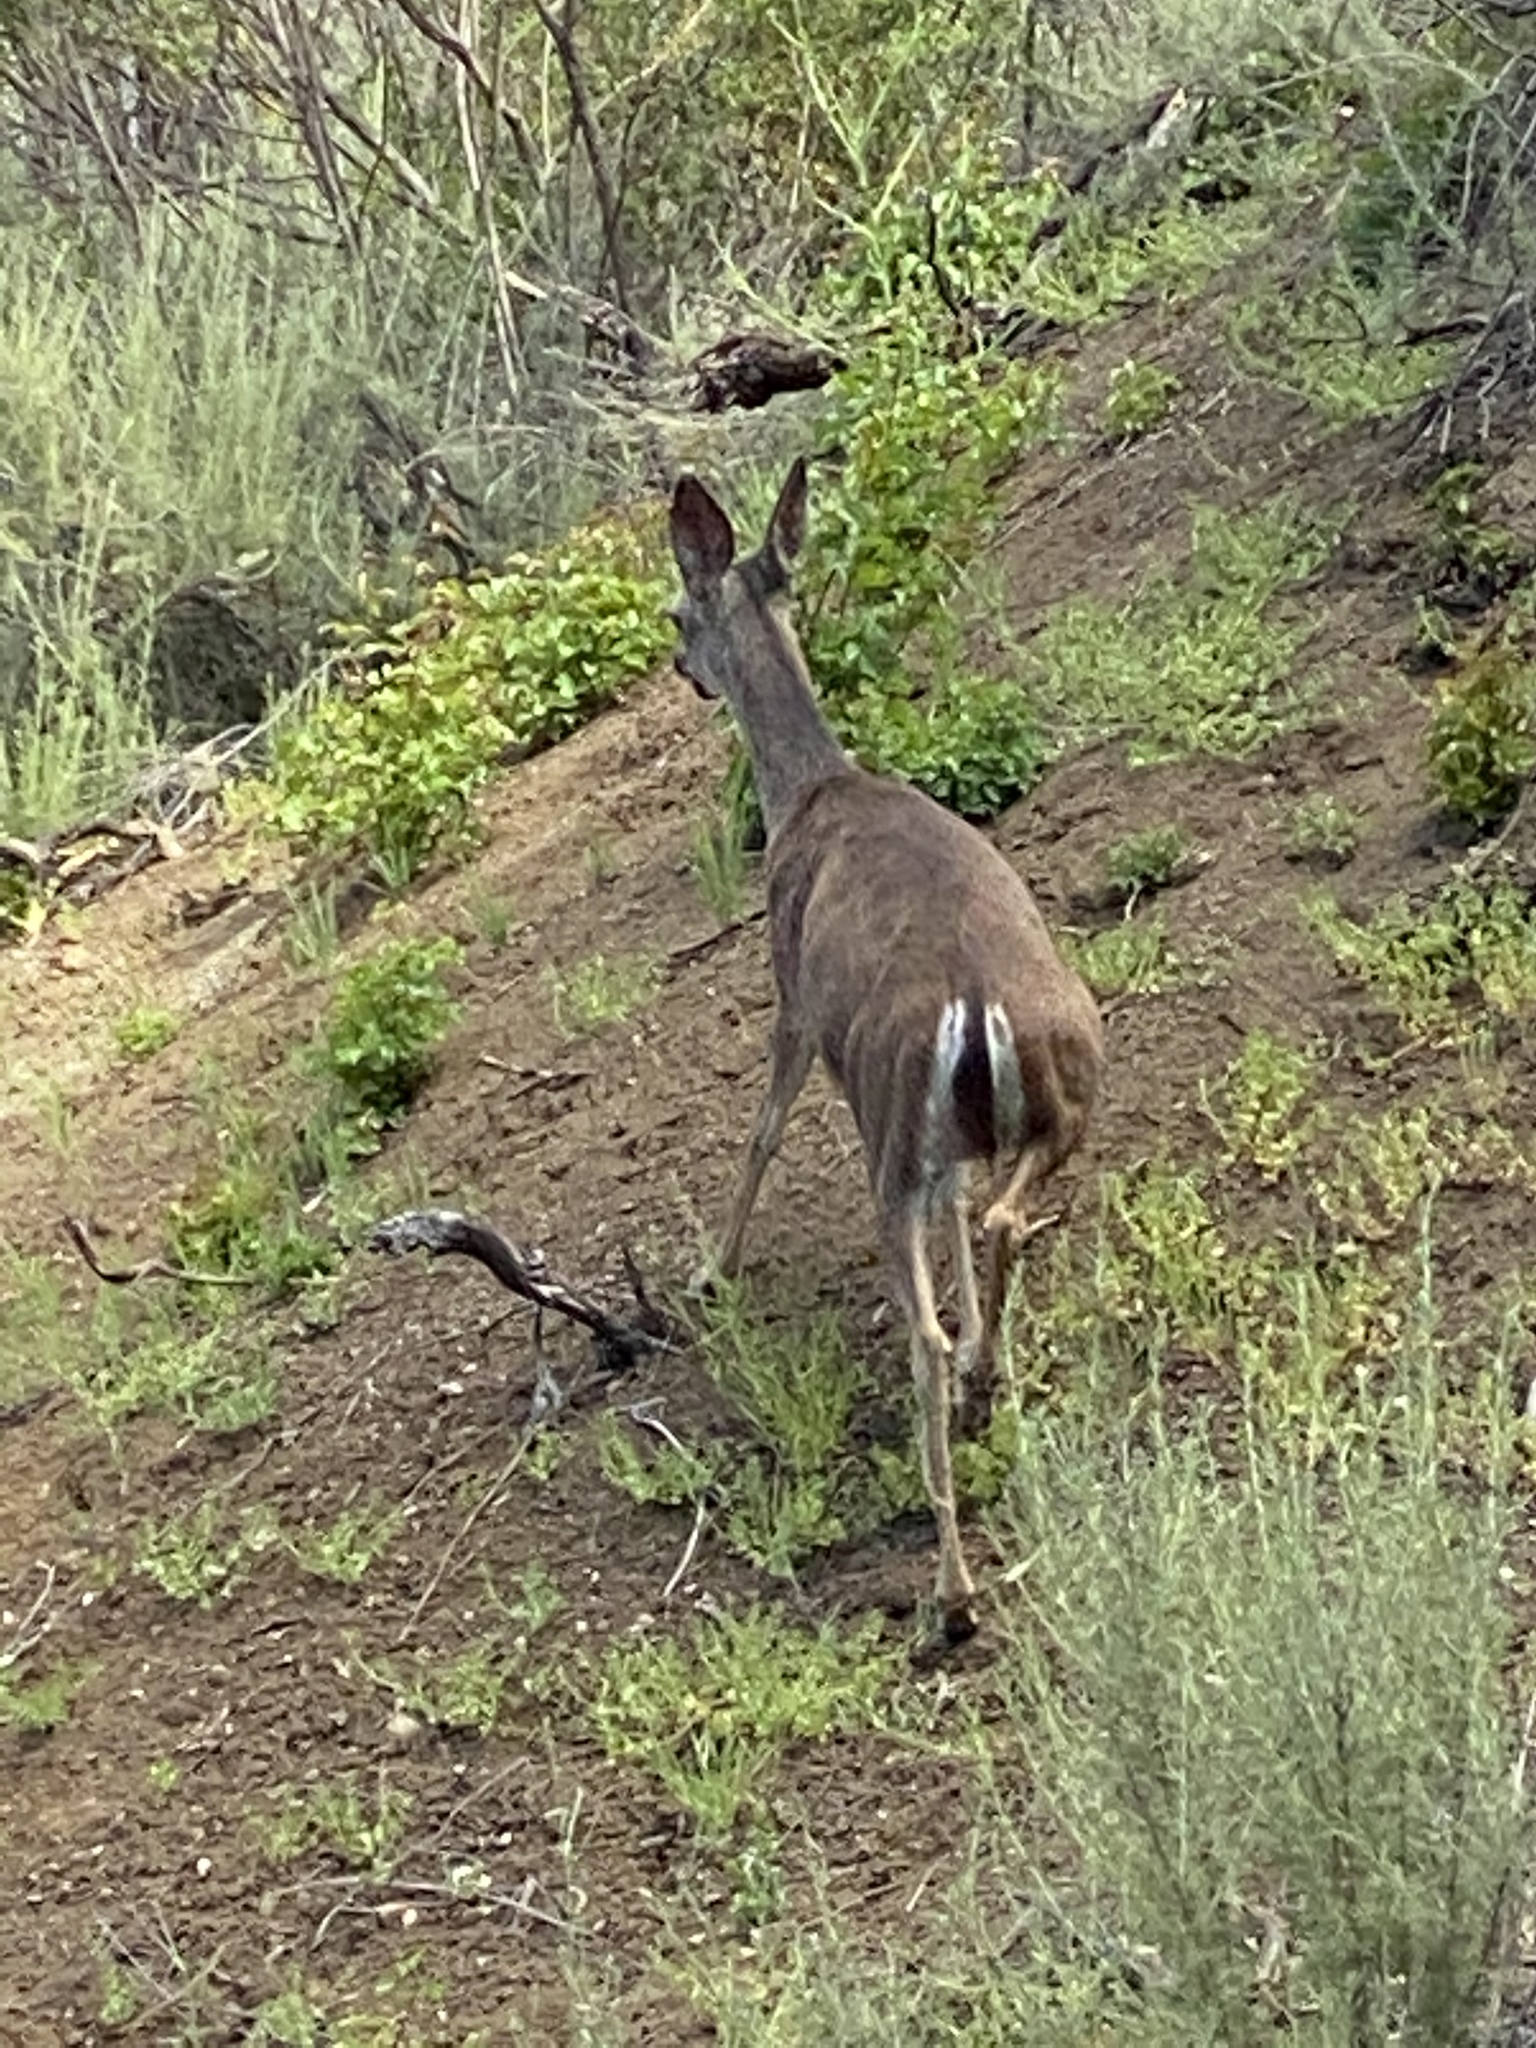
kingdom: Animalia
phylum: Chordata
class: Mammalia
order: Artiodactyla
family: Cervidae
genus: Odocoileus
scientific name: Odocoileus hemionus
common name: Mule deer
